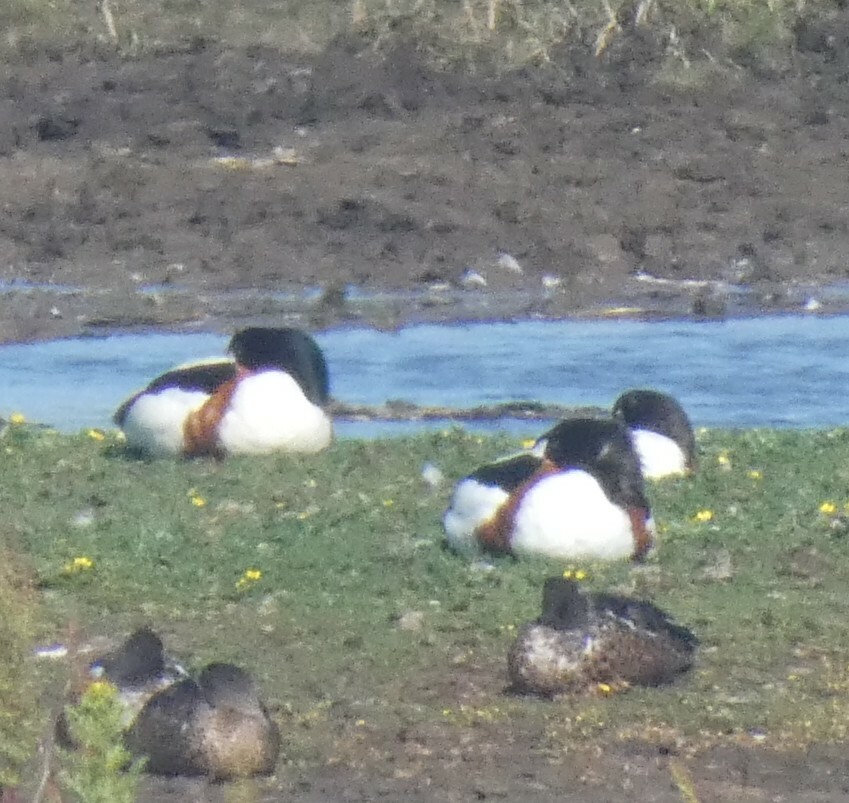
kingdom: Animalia
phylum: Chordata
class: Aves
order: Anseriformes
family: Anatidae
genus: Tadorna
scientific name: Tadorna tadorna
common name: Common shelduck
